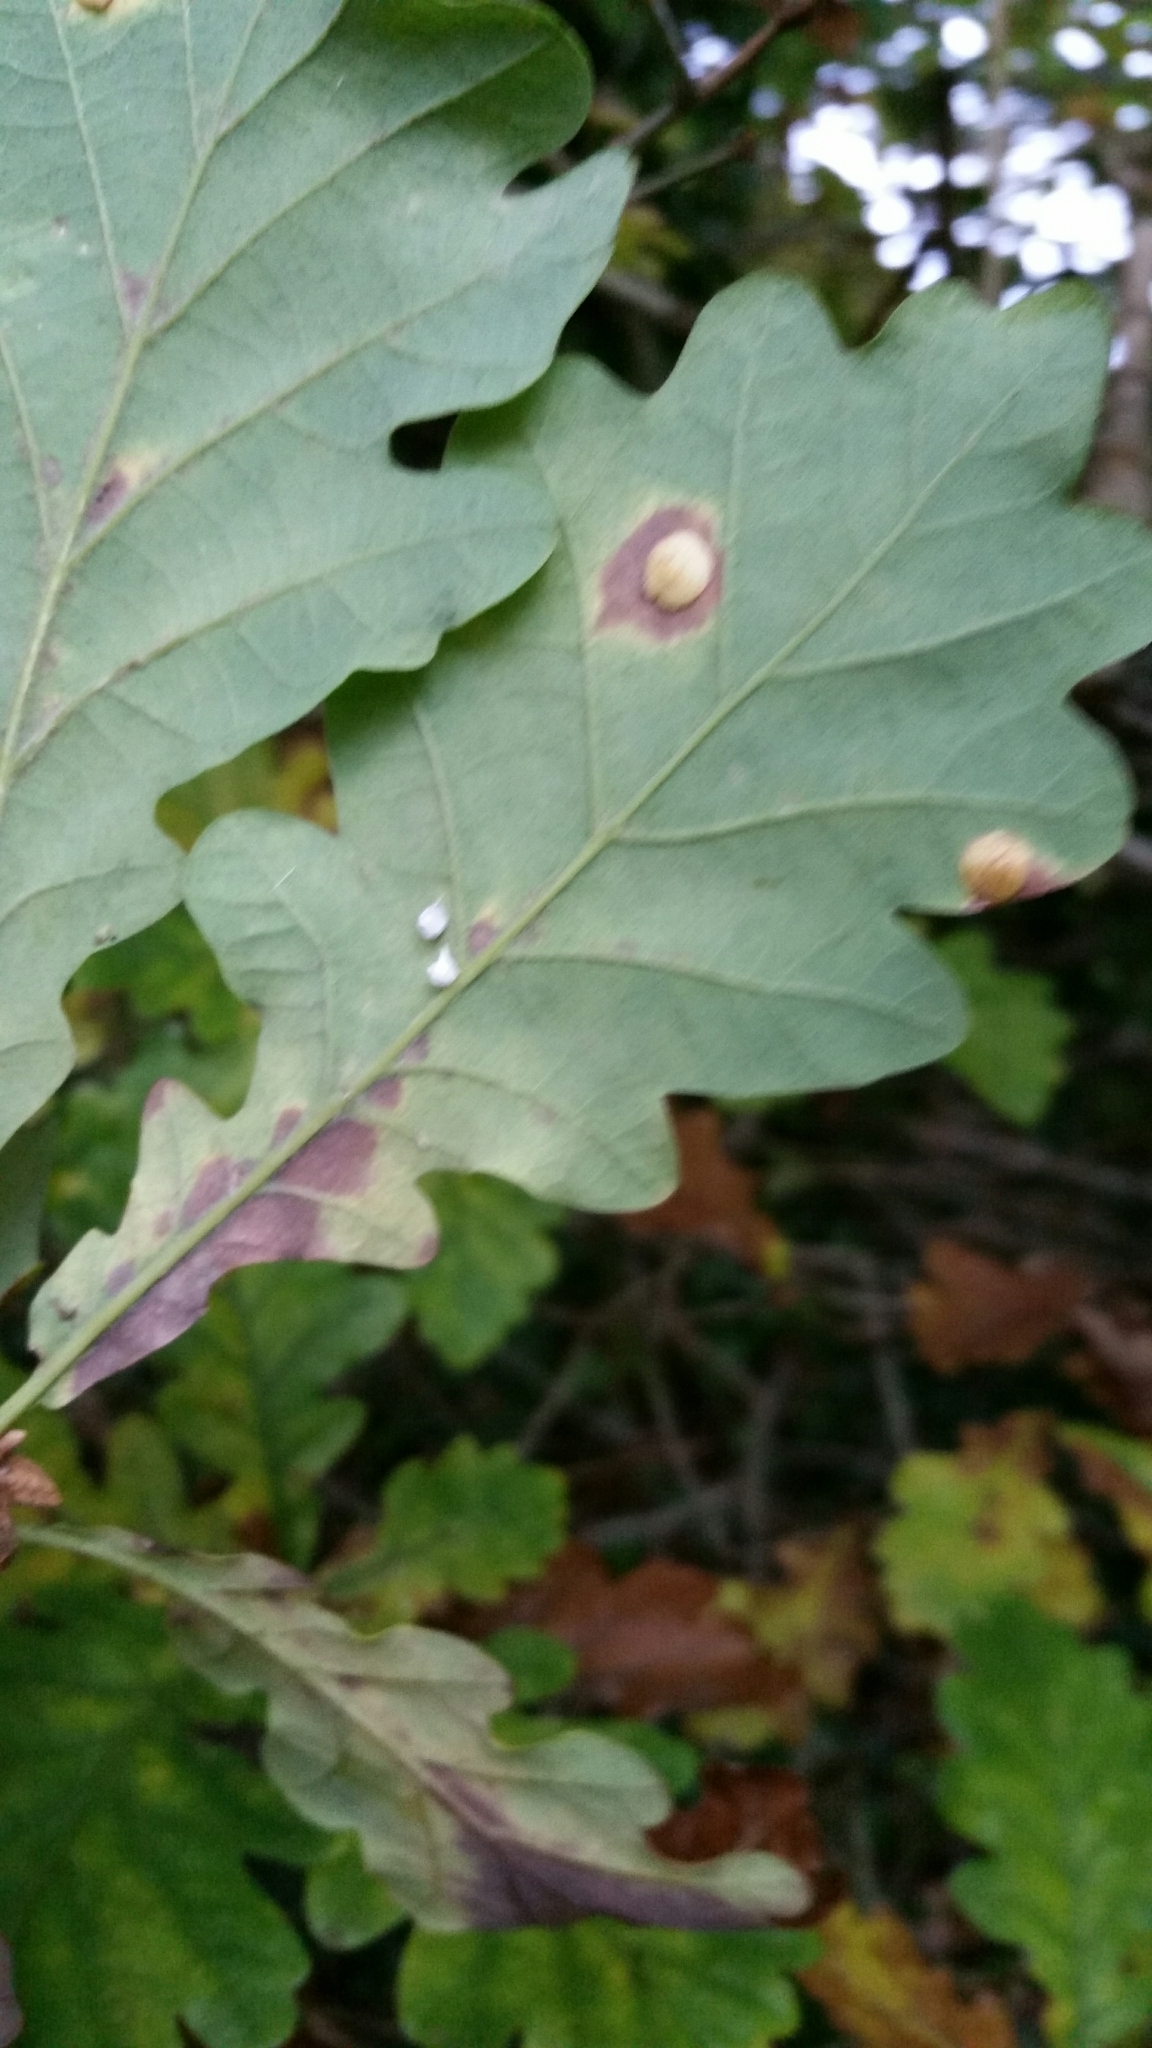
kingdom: Animalia
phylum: Arthropoda
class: Arachnida
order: Araneae
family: Theridiidae
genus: Paidiscura
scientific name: Paidiscura pallens
